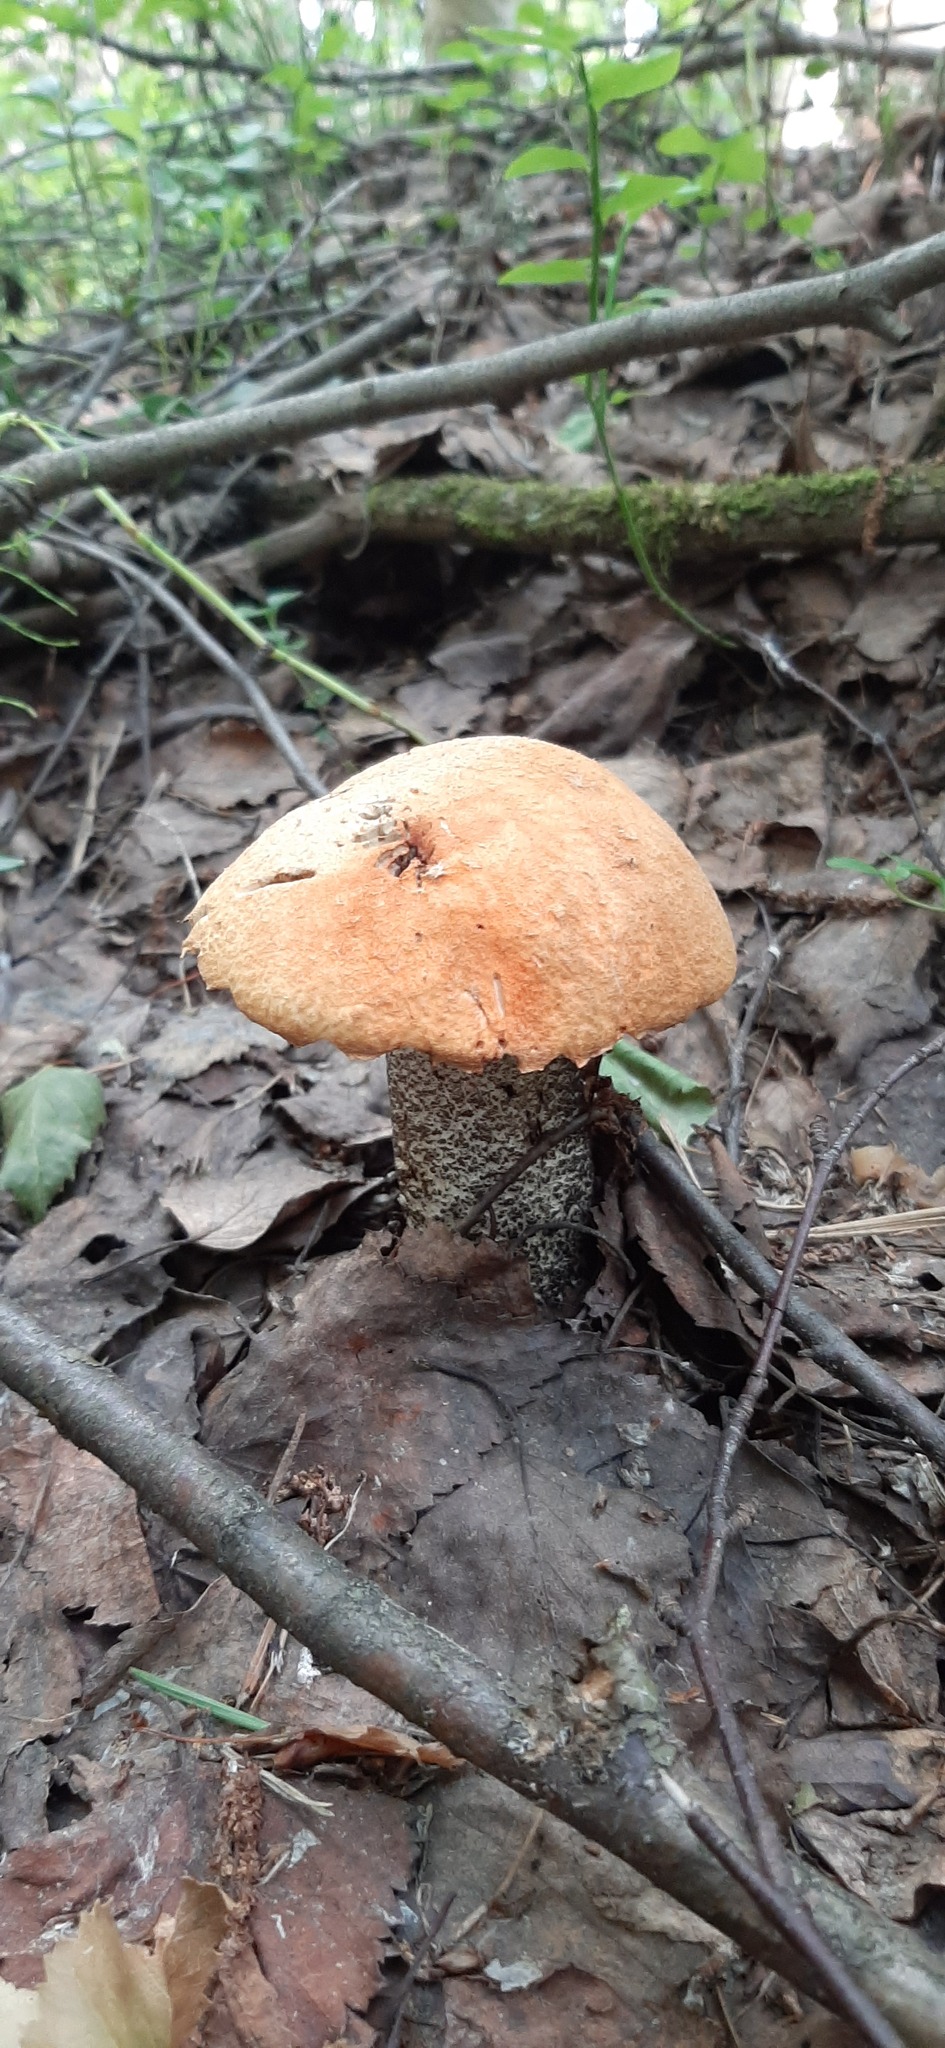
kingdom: Fungi
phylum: Basidiomycota
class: Agaricomycetes
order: Boletales
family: Boletaceae
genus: Leccinum
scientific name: Leccinum versipelle
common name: Orange birch bolete
